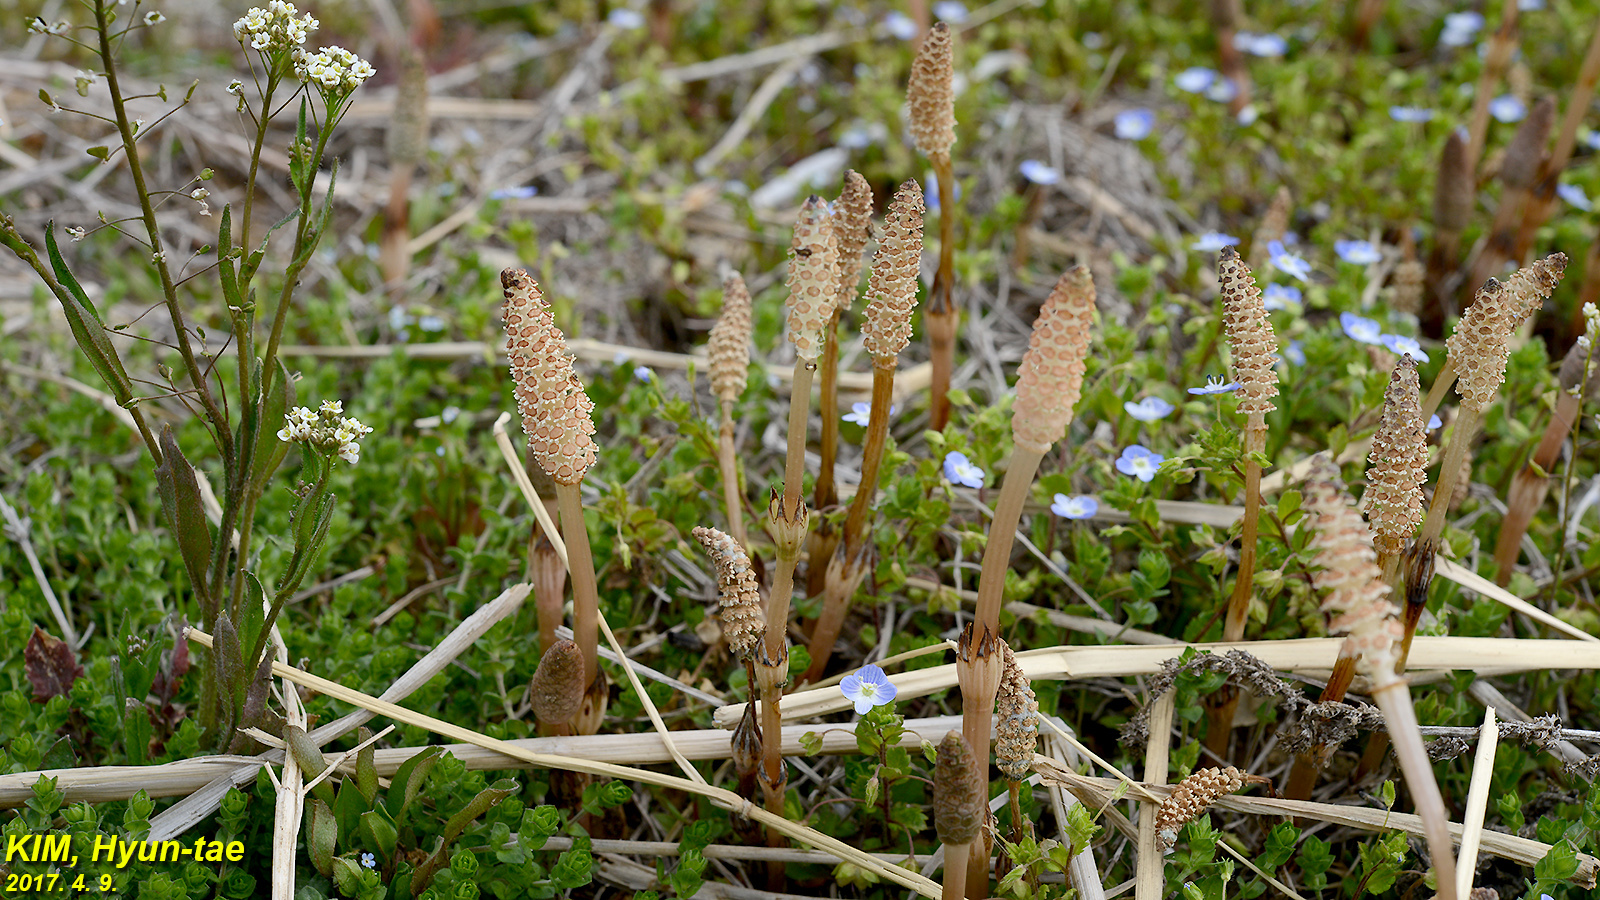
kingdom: Plantae
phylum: Tracheophyta
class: Polypodiopsida
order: Equisetales
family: Equisetaceae
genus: Equisetum
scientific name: Equisetum arvense
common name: Field horsetail
